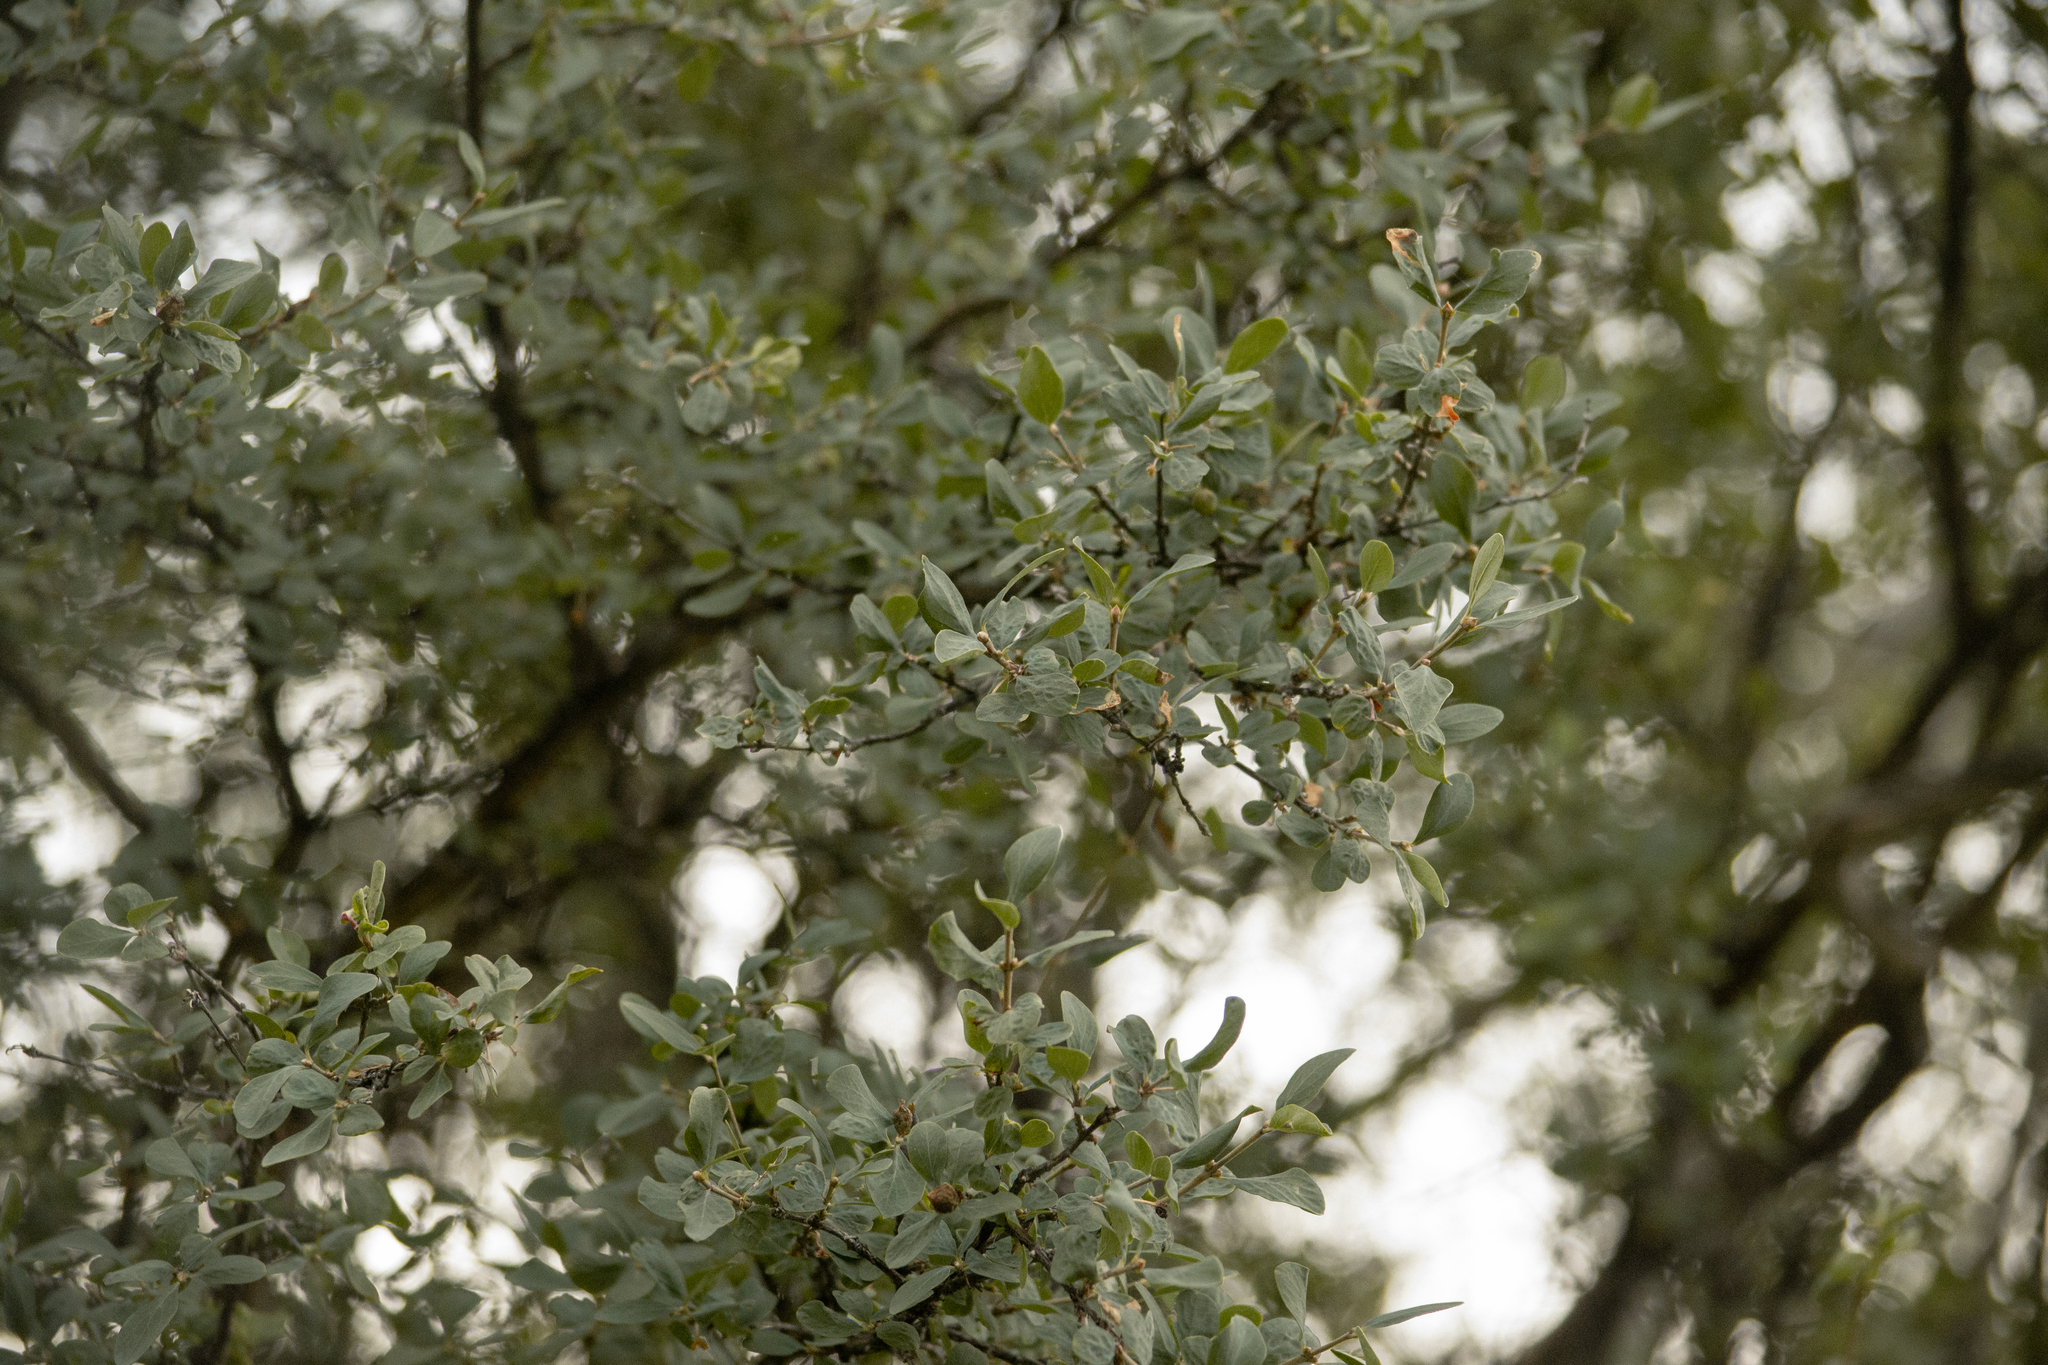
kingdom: Plantae
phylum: Tracheophyta
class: Magnoliopsida
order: Dipsacales
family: Caprifoliaceae
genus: Lonicera
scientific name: Lonicera microphylla
